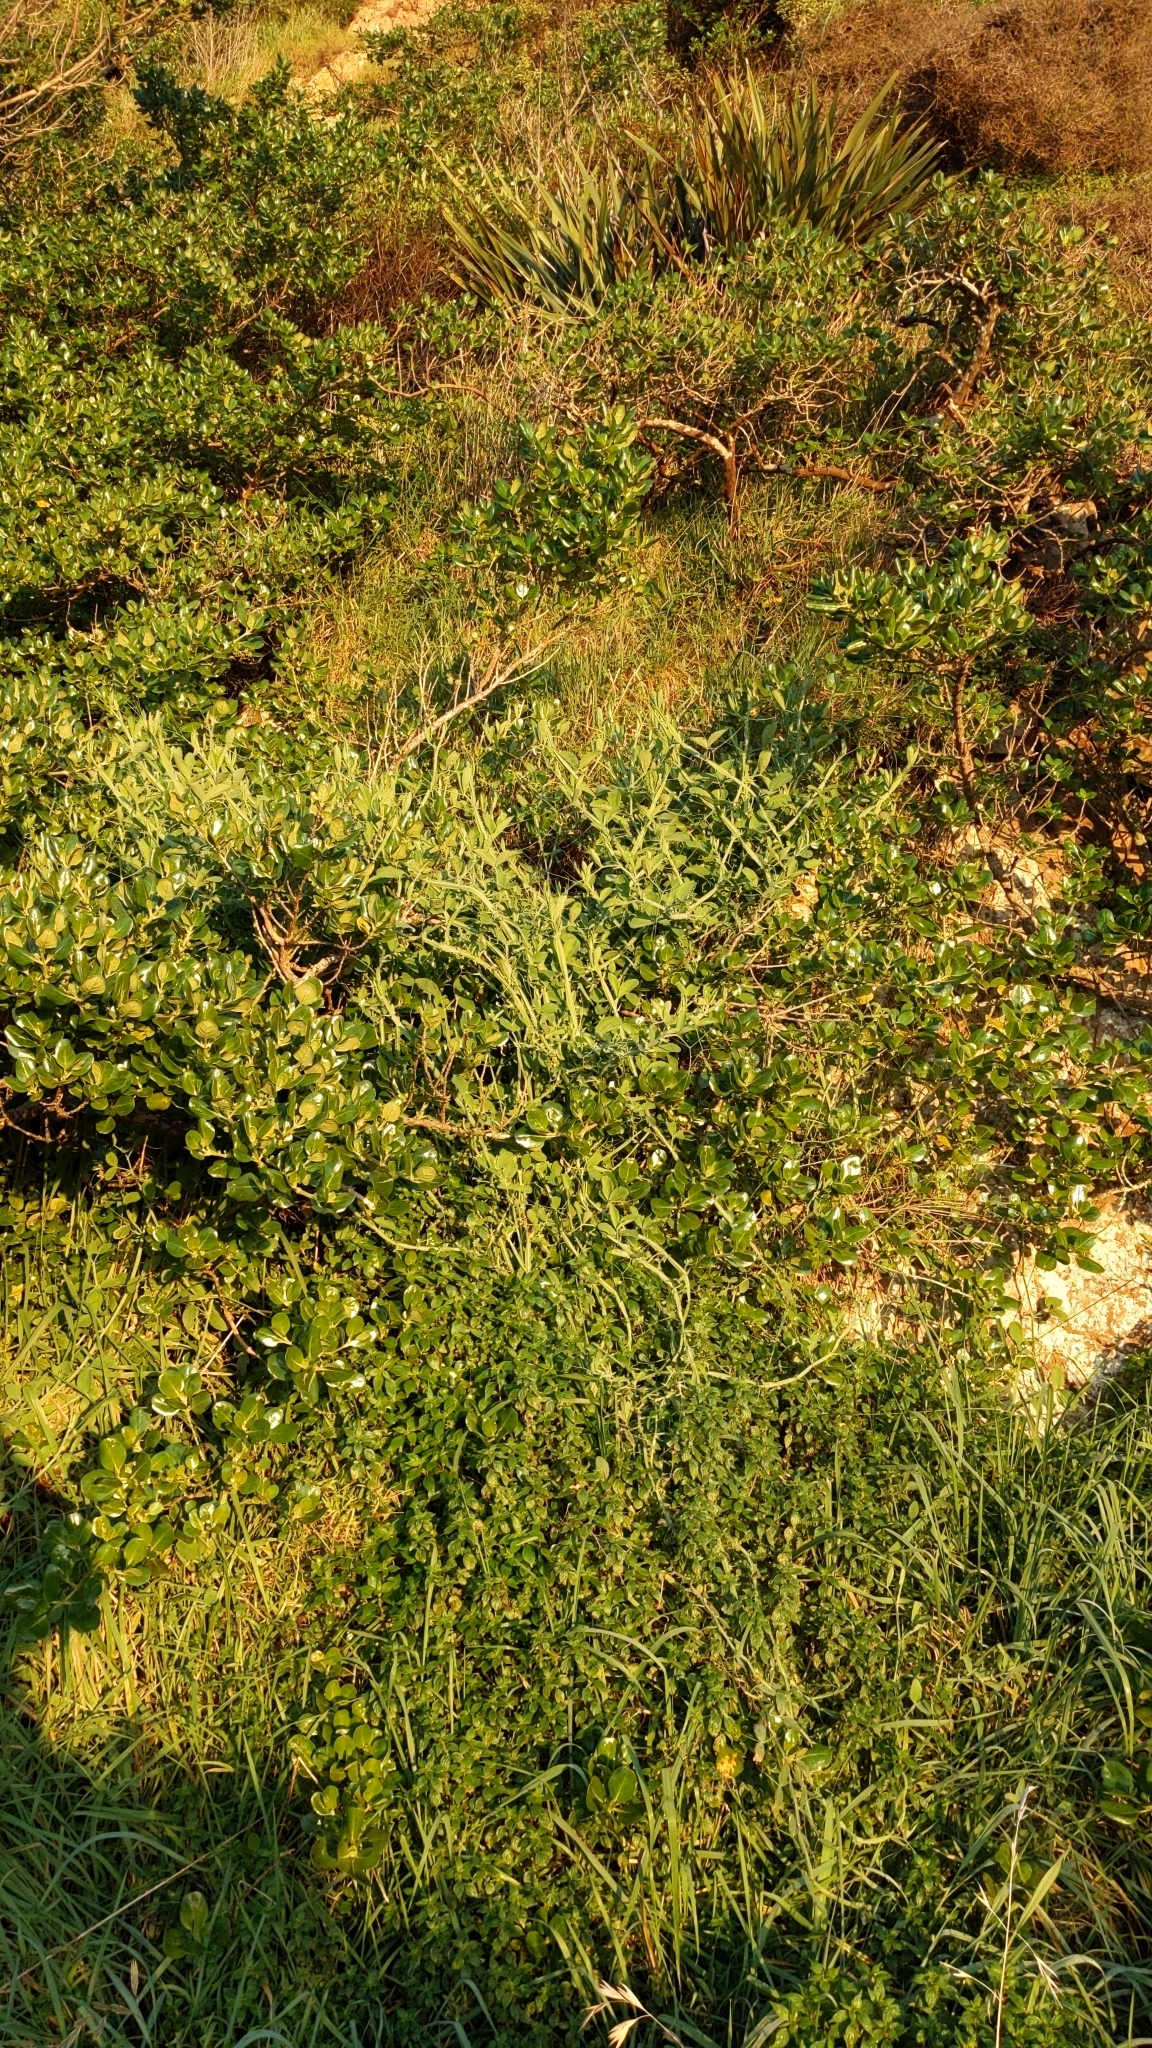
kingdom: Plantae
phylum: Tracheophyta
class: Magnoliopsida
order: Fabales
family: Fabaceae
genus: Lathyrus
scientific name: Lathyrus tingitanus
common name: Tangier pea
